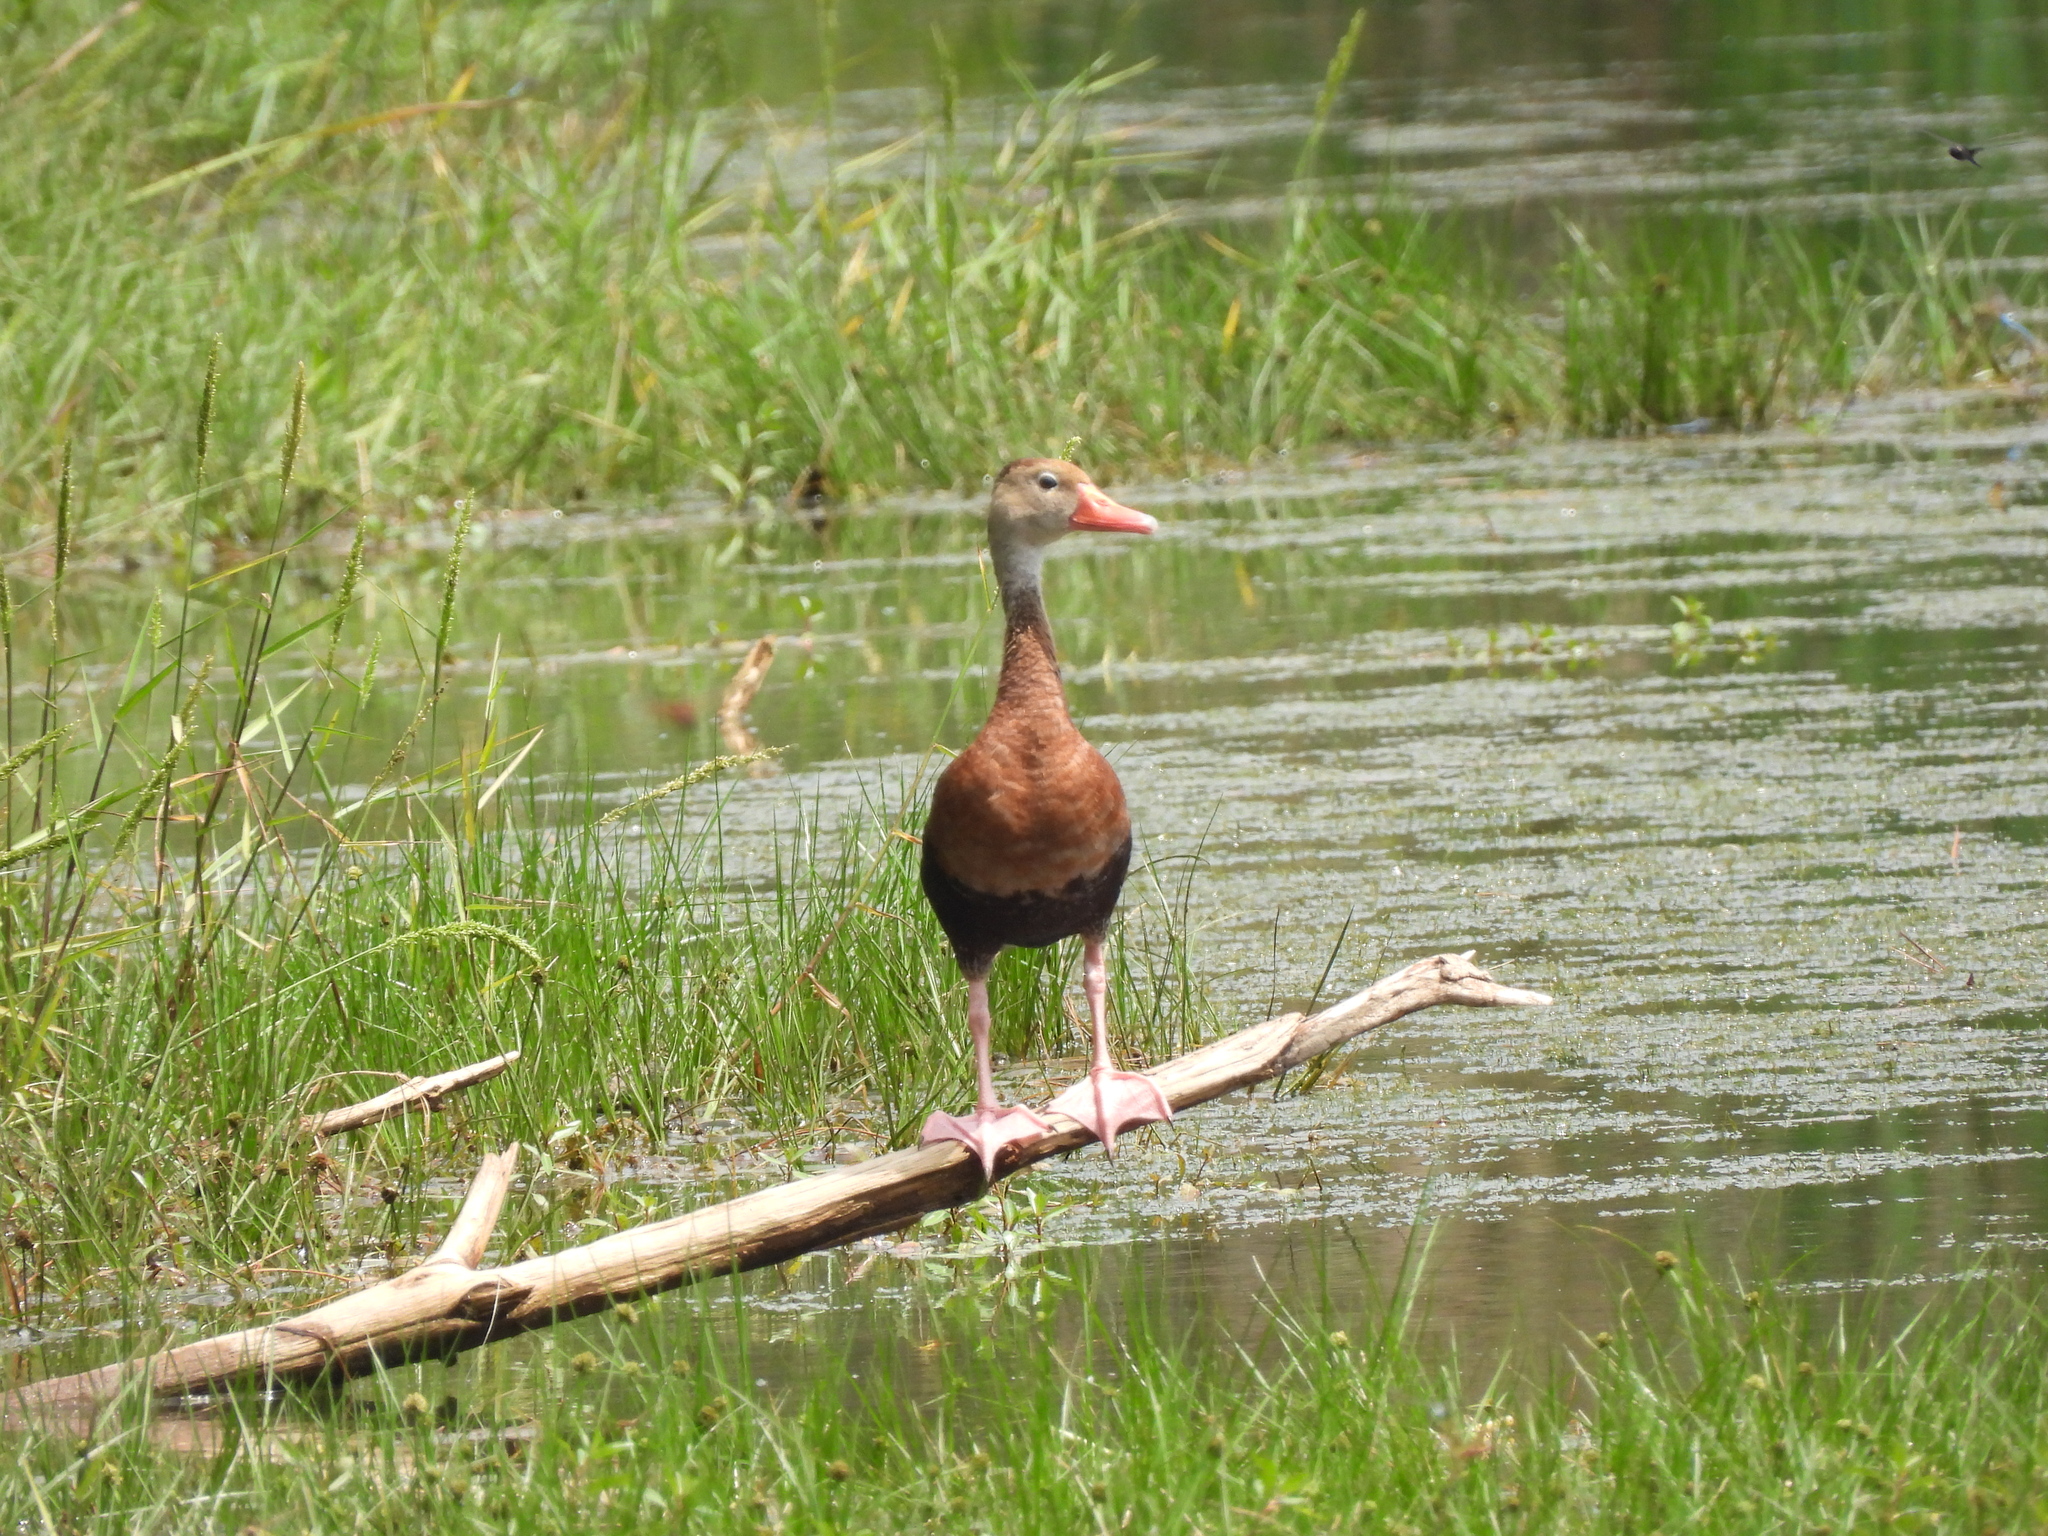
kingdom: Animalia
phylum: Chordata
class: Aves
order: Anseriformes
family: Anatidae
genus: Dendrocygna
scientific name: Dendrocygna autumnalis
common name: Black-bellied whistling duck
